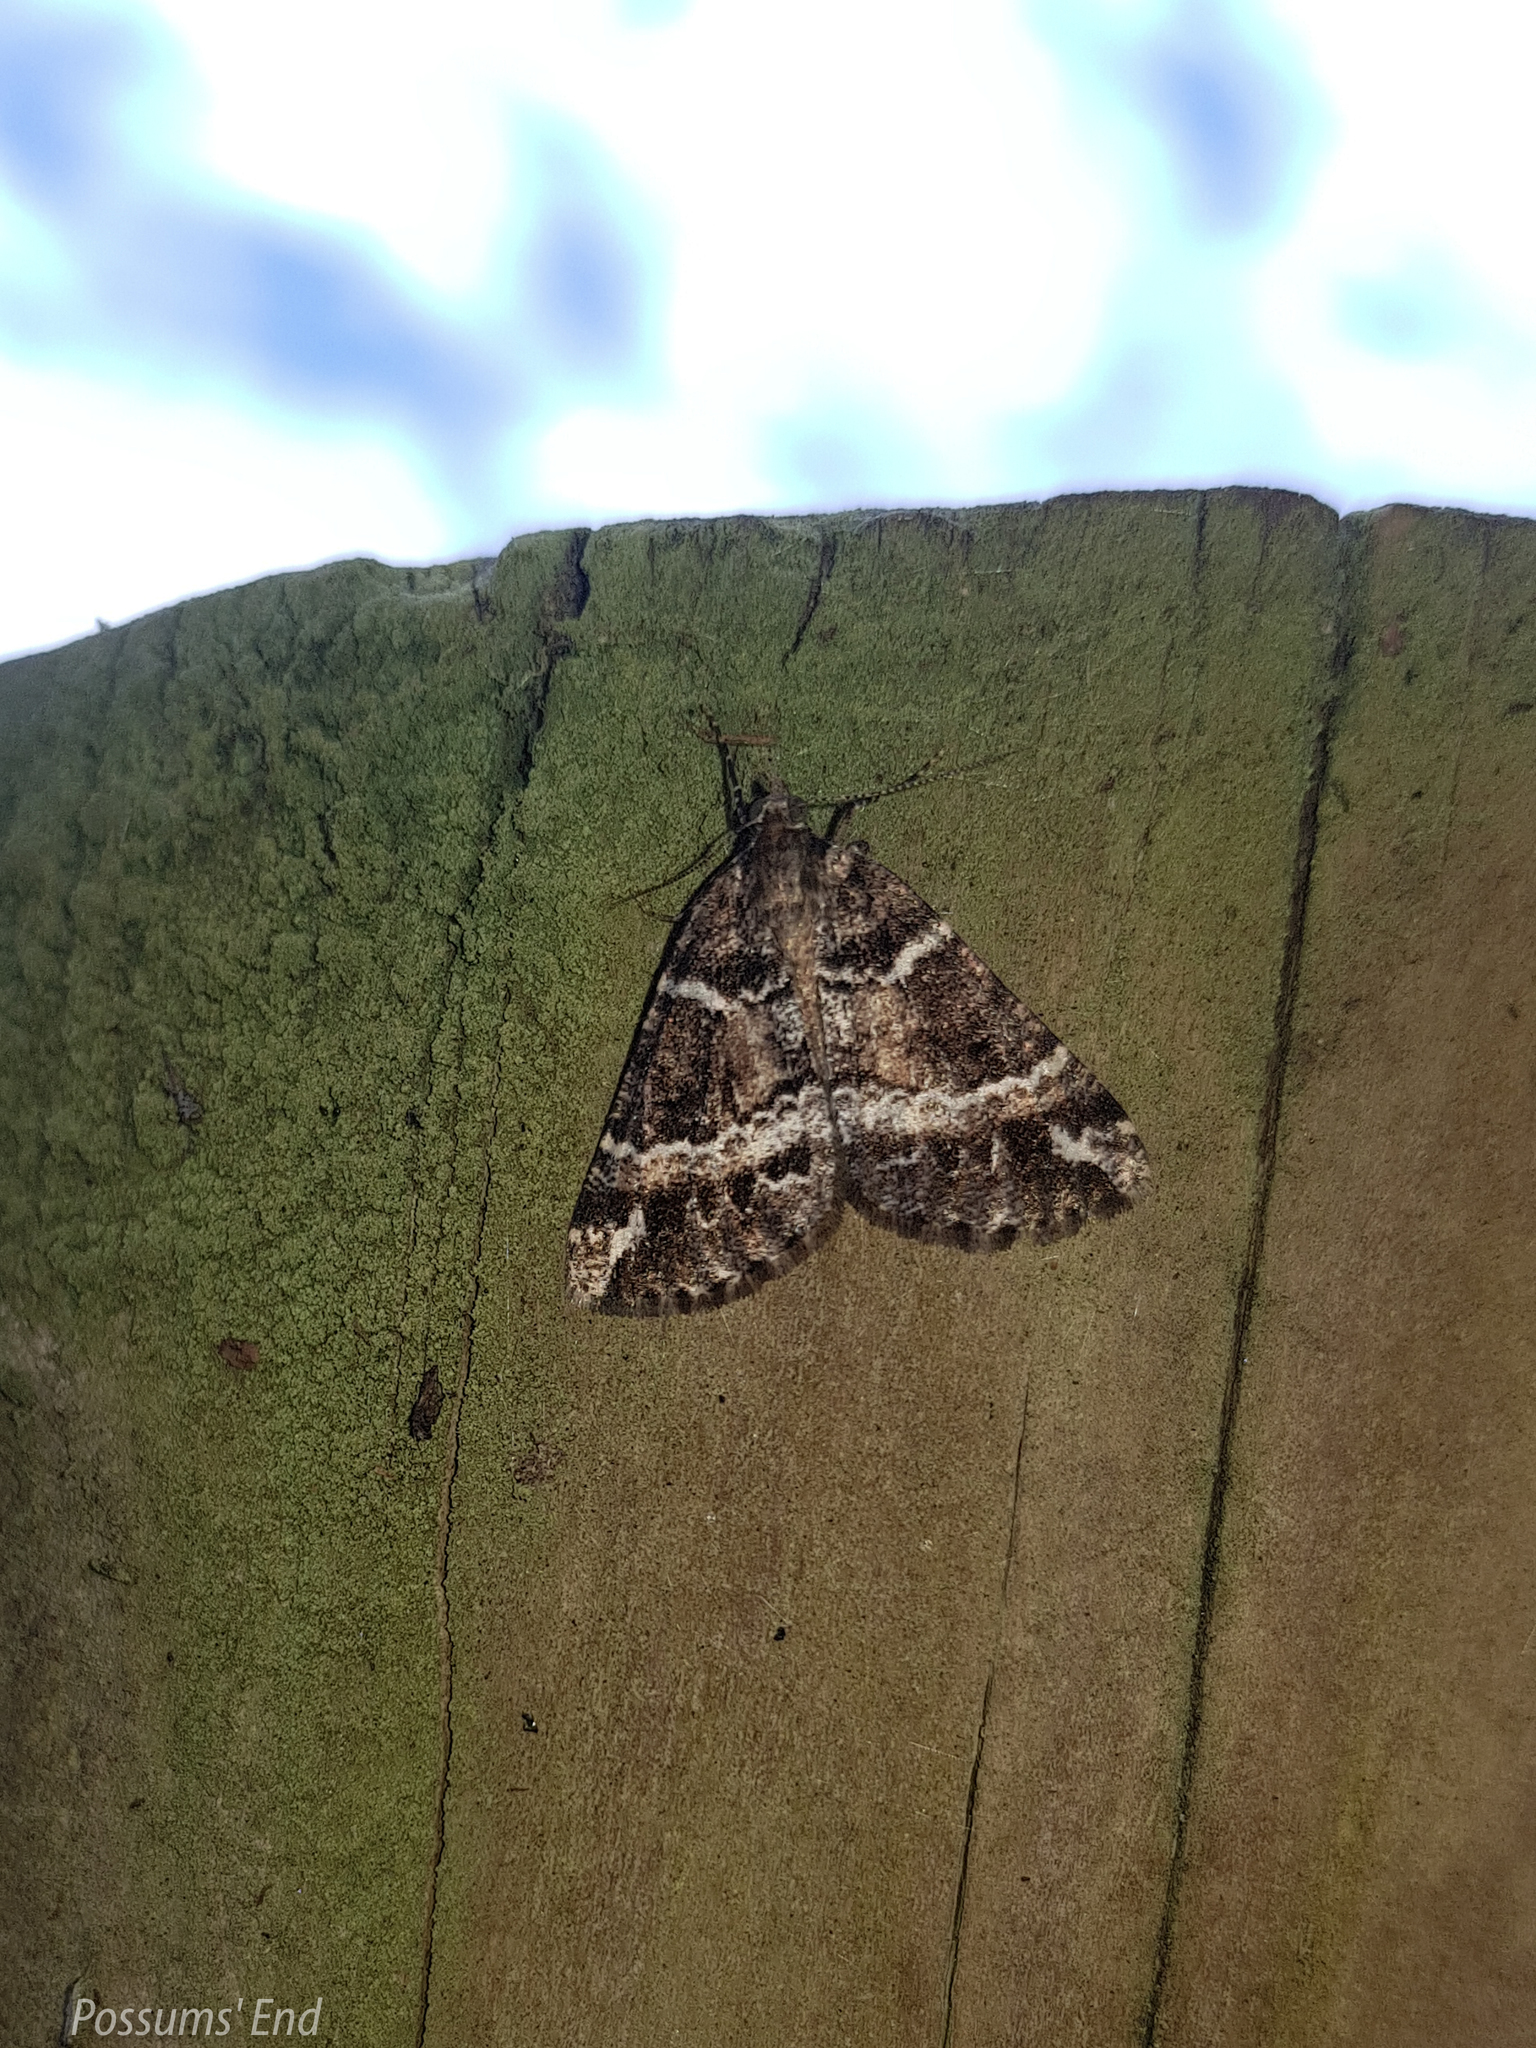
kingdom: Animalia
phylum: Arthropoda
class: Insecta
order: Lepidoptera
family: Geometridae
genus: Pseudocoremia
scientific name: Pseudocoremia
